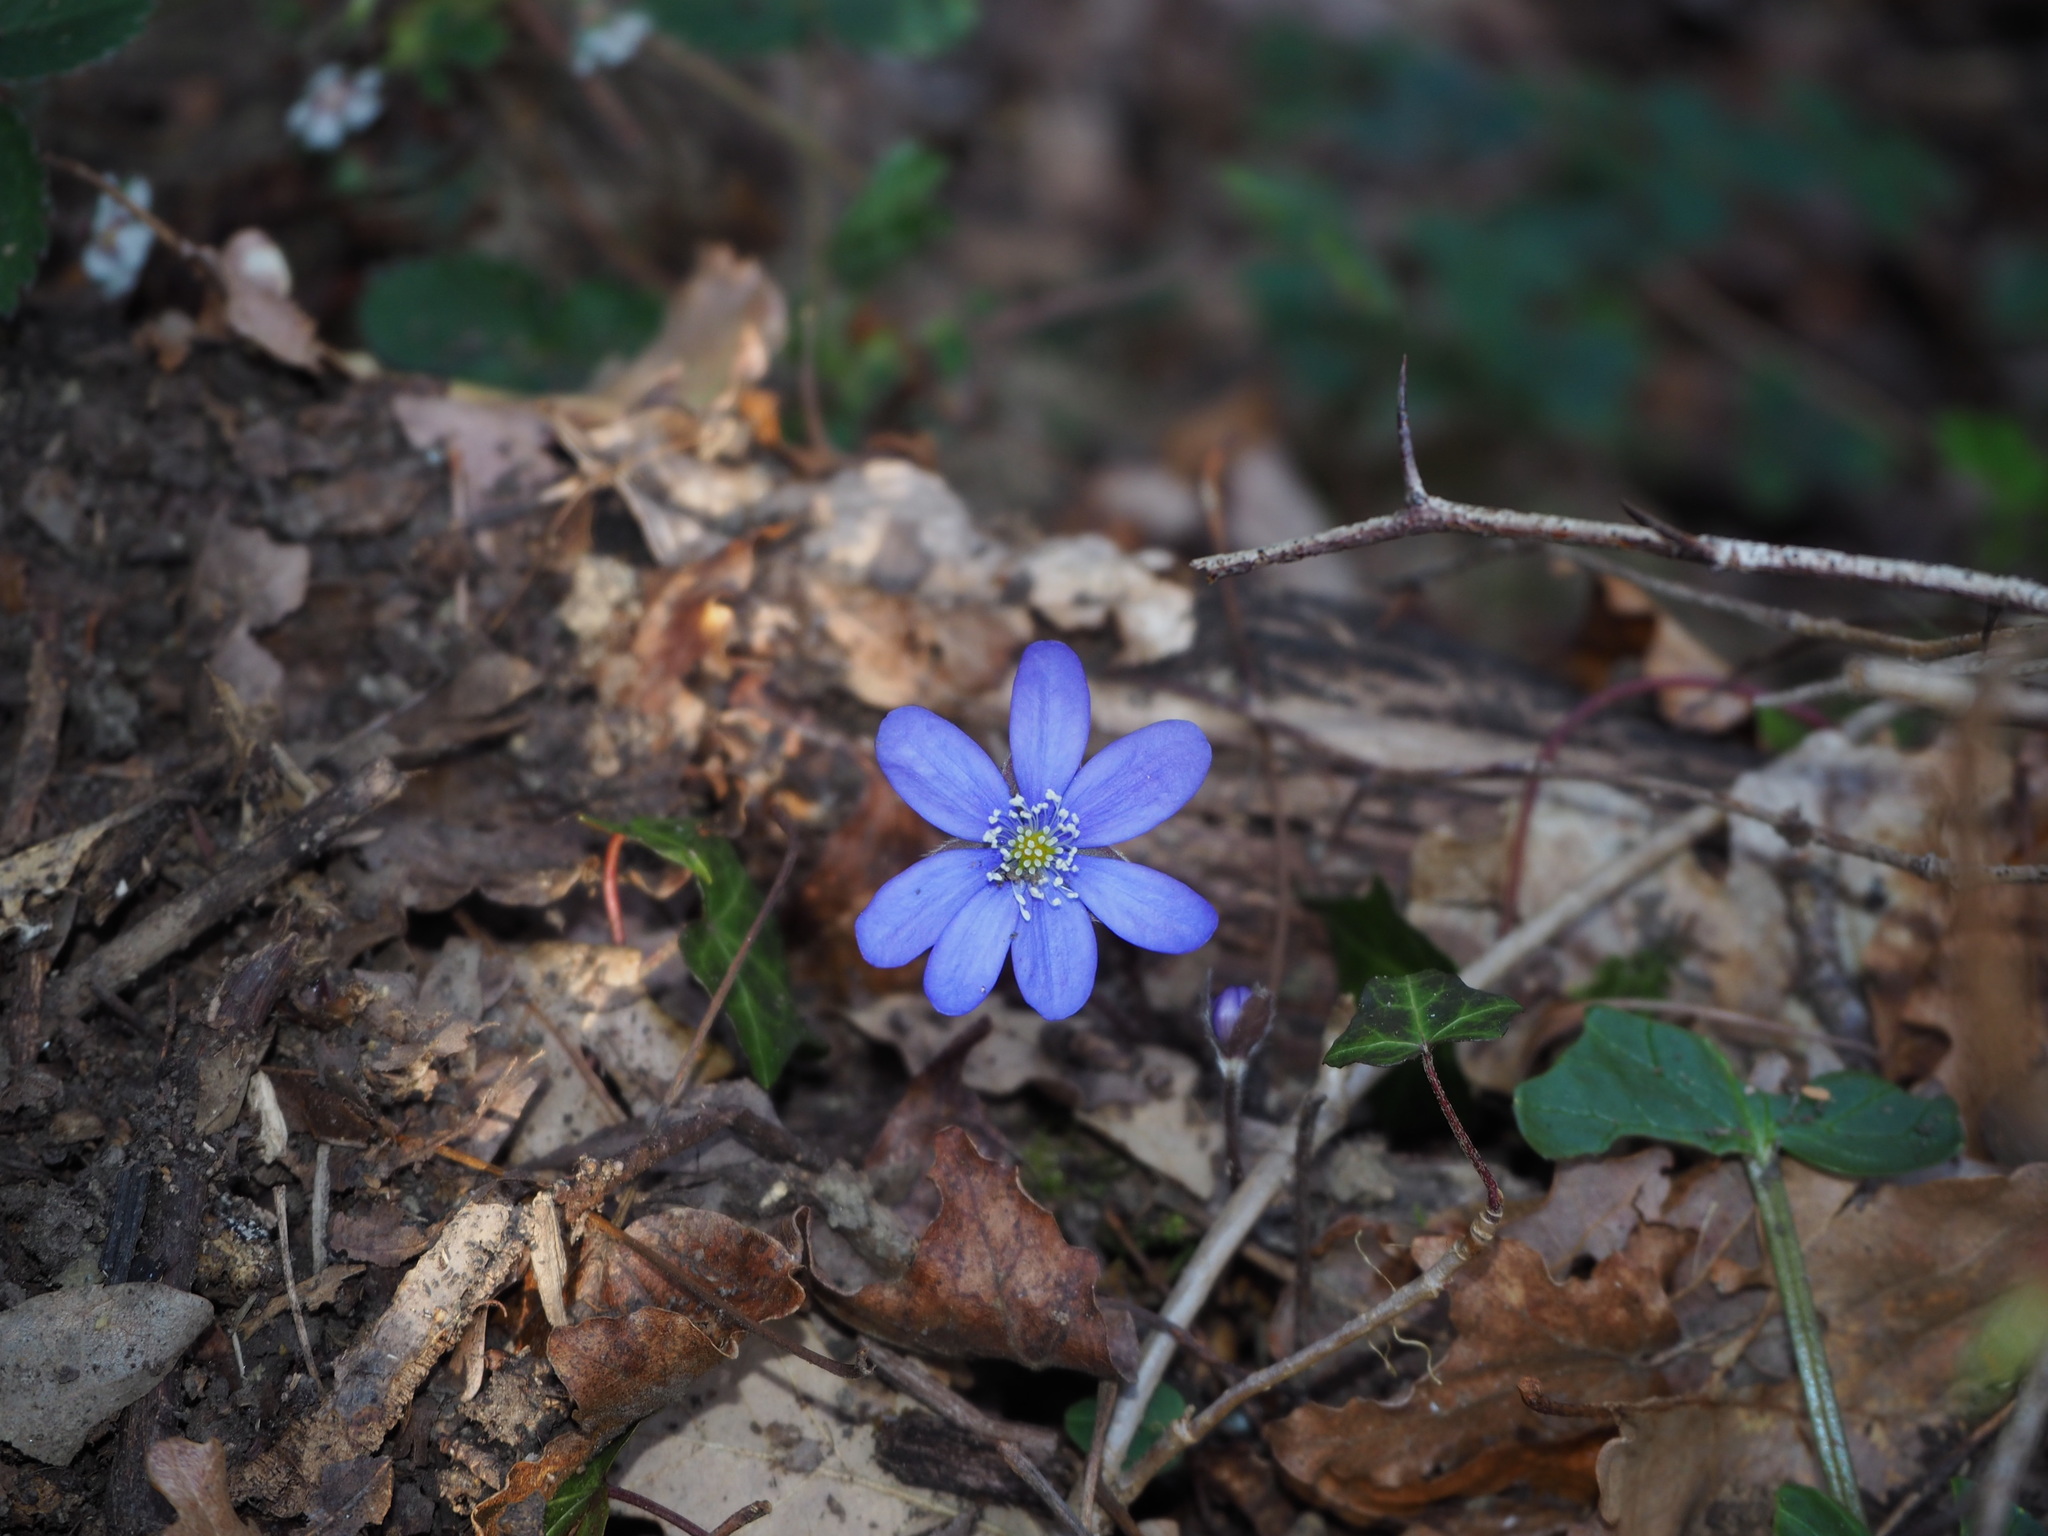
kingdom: Plantae
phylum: Tracheophyta
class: Magnoliopsida
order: Ranunculales
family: Ranunculaceae
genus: Hepatica
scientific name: Hepatica nobilis
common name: Liverleaf
